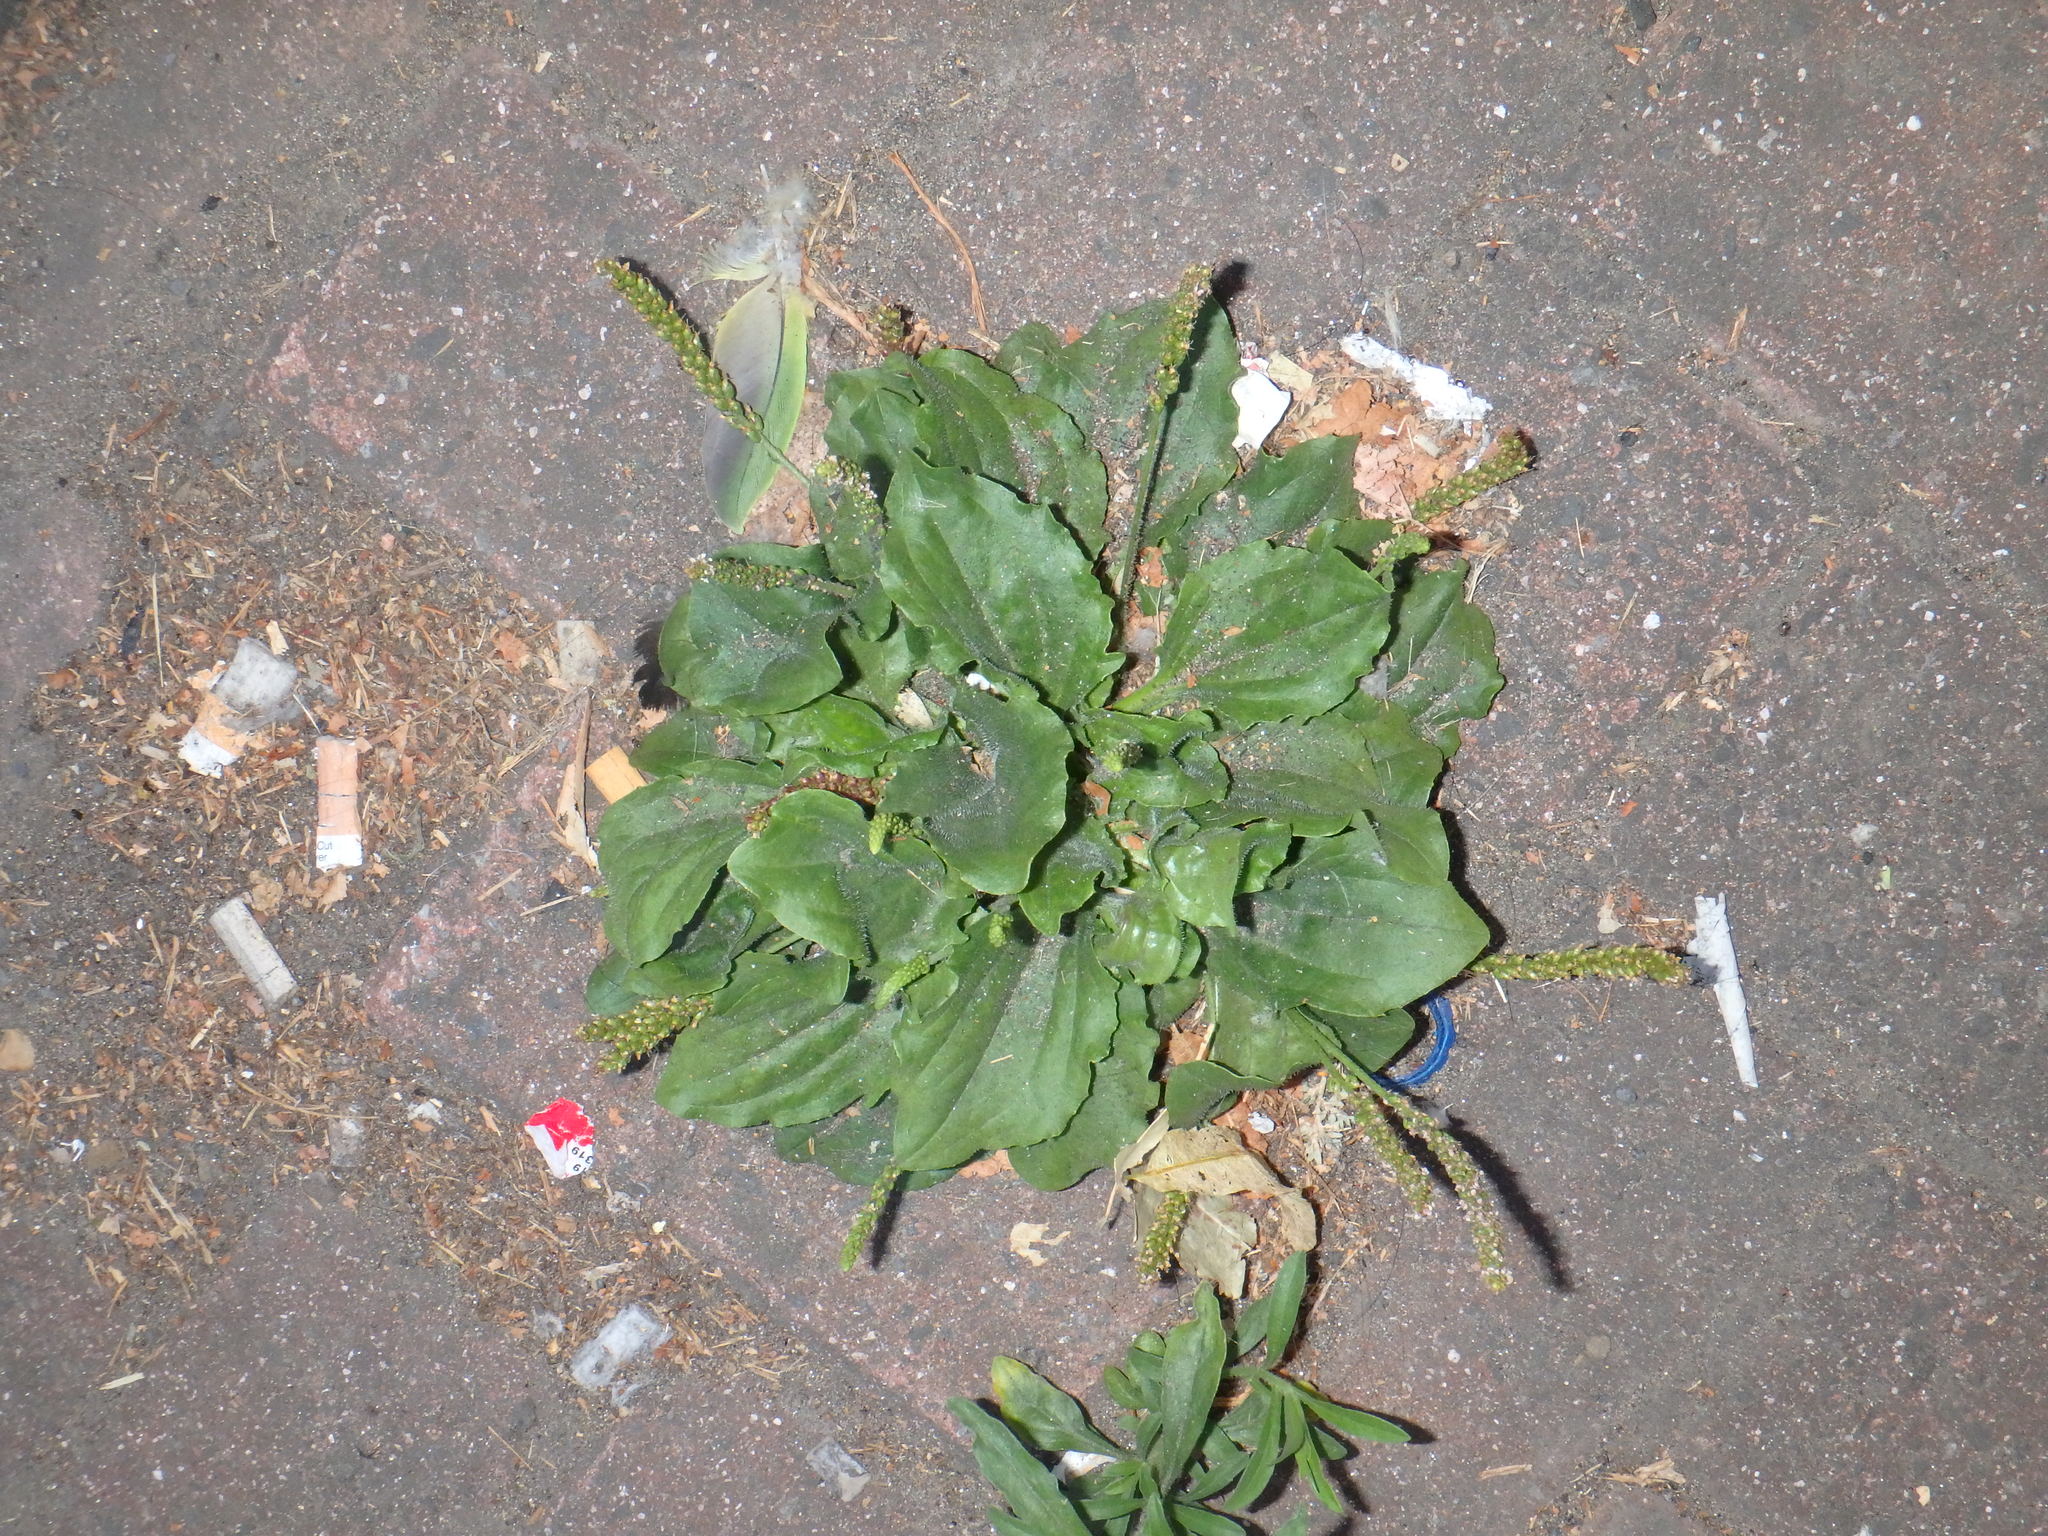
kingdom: Plantae
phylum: Tracheophyta
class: Magnoliopsida
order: Lamiales
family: Plantaginaceae
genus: Plantago
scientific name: Plantago major
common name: Common plantain
